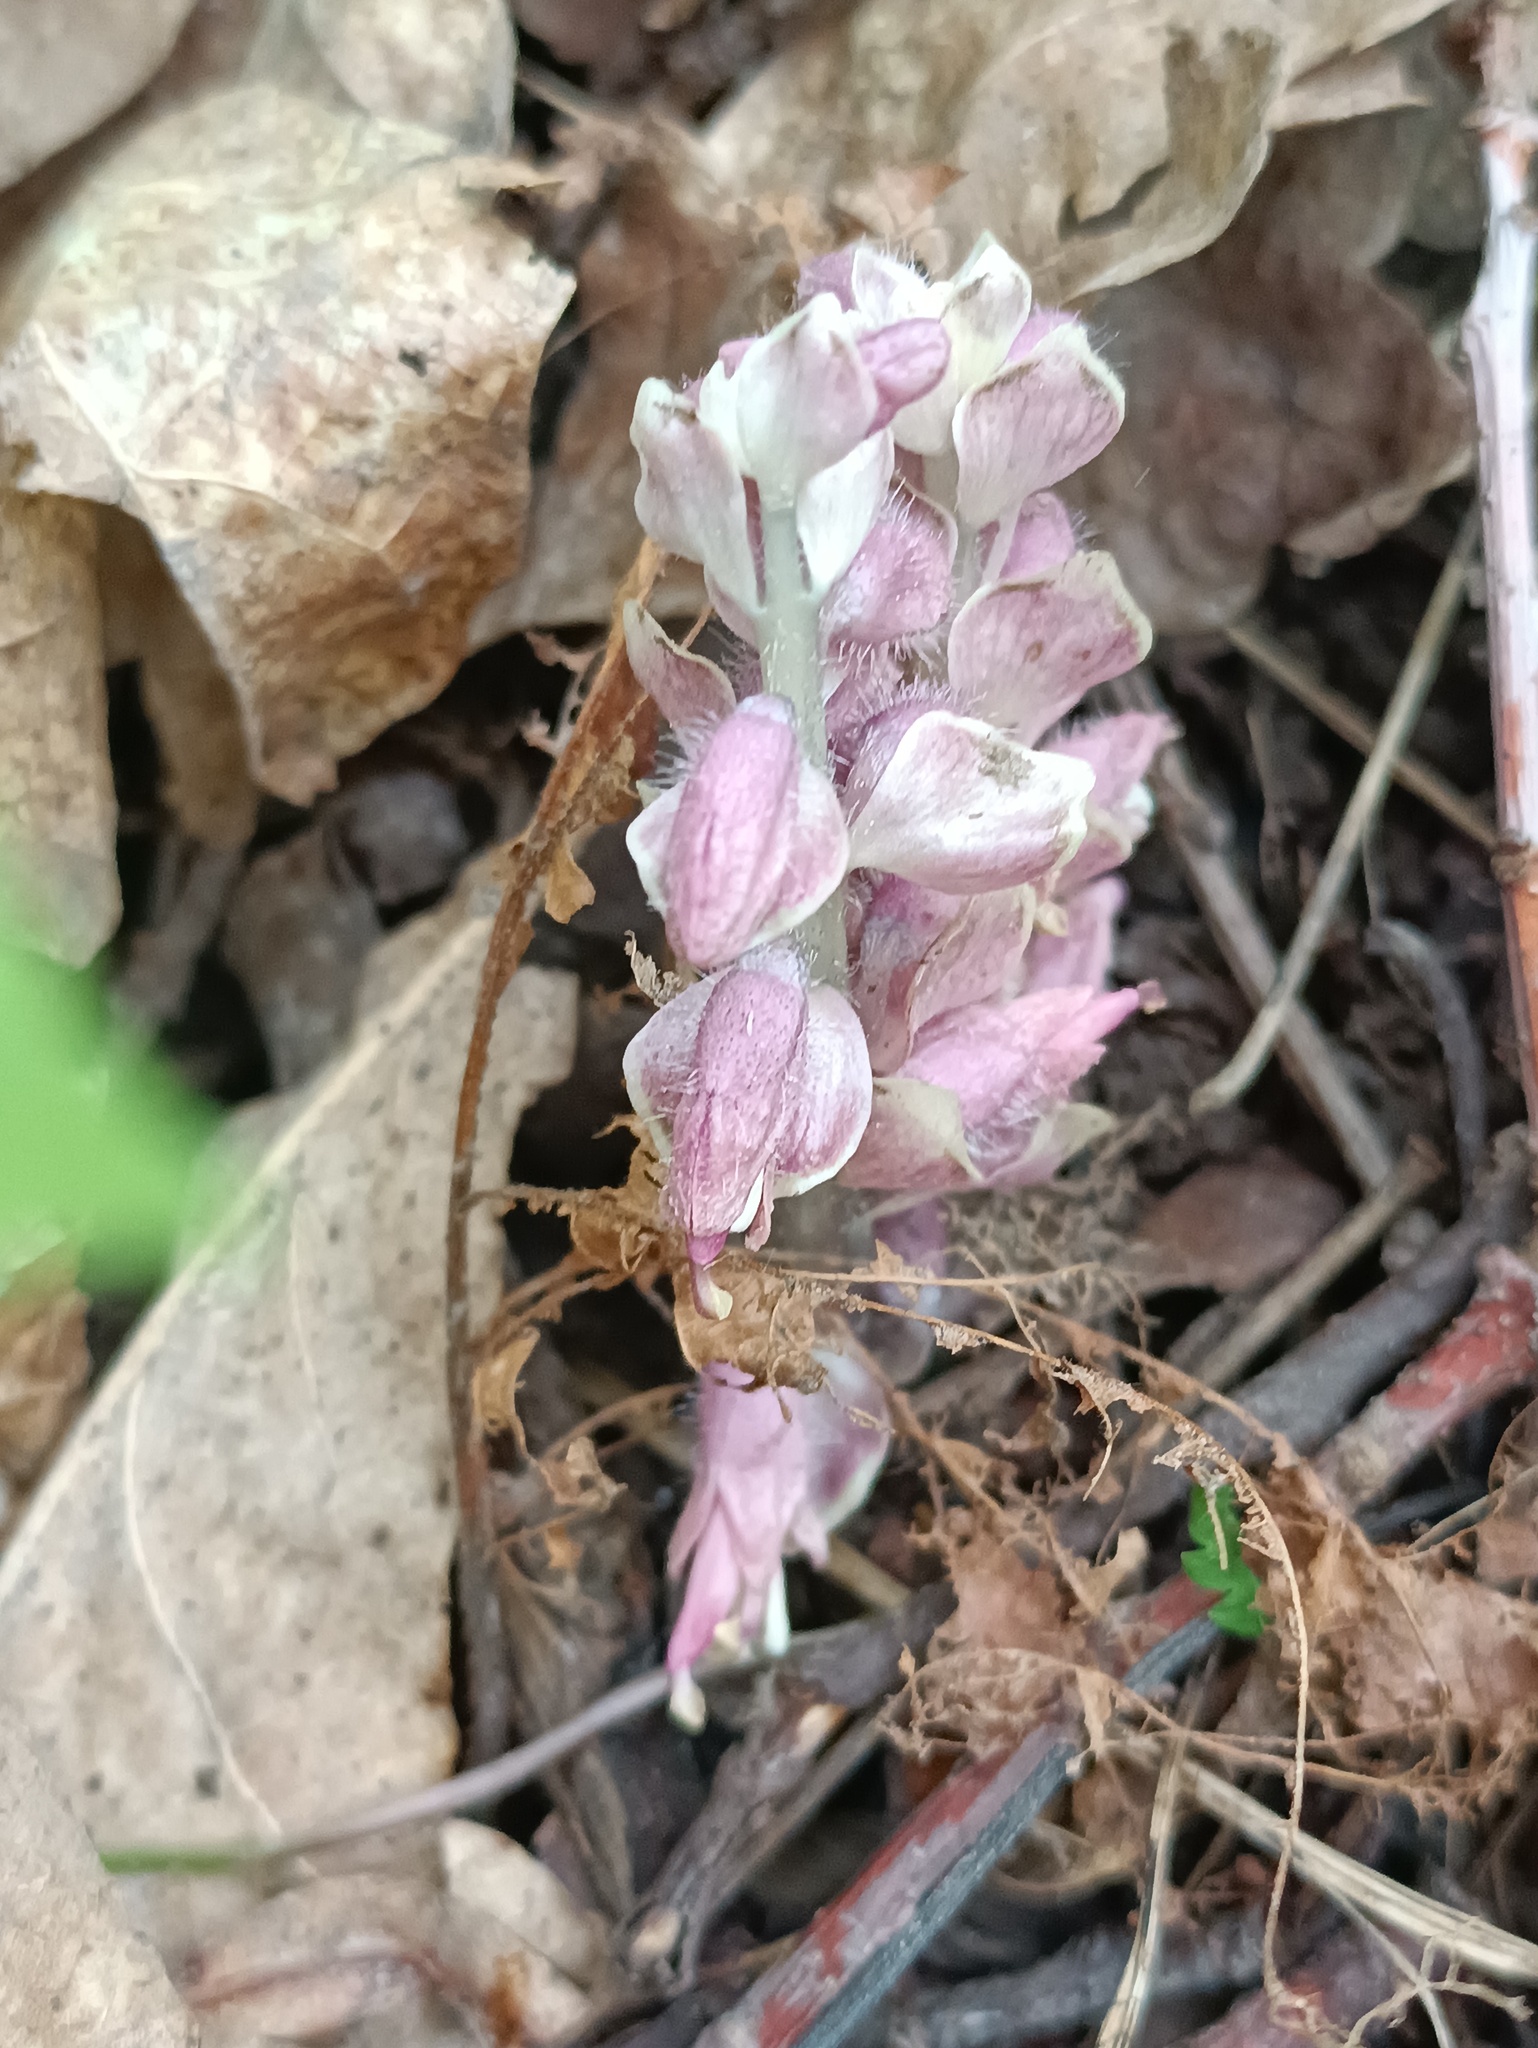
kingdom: Plantae
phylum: Tracheophyta
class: Magnoliopsida
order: Lamiales
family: Orobanchaceae
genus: Lathraea
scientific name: Lathraea squamaria
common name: Toothwort
